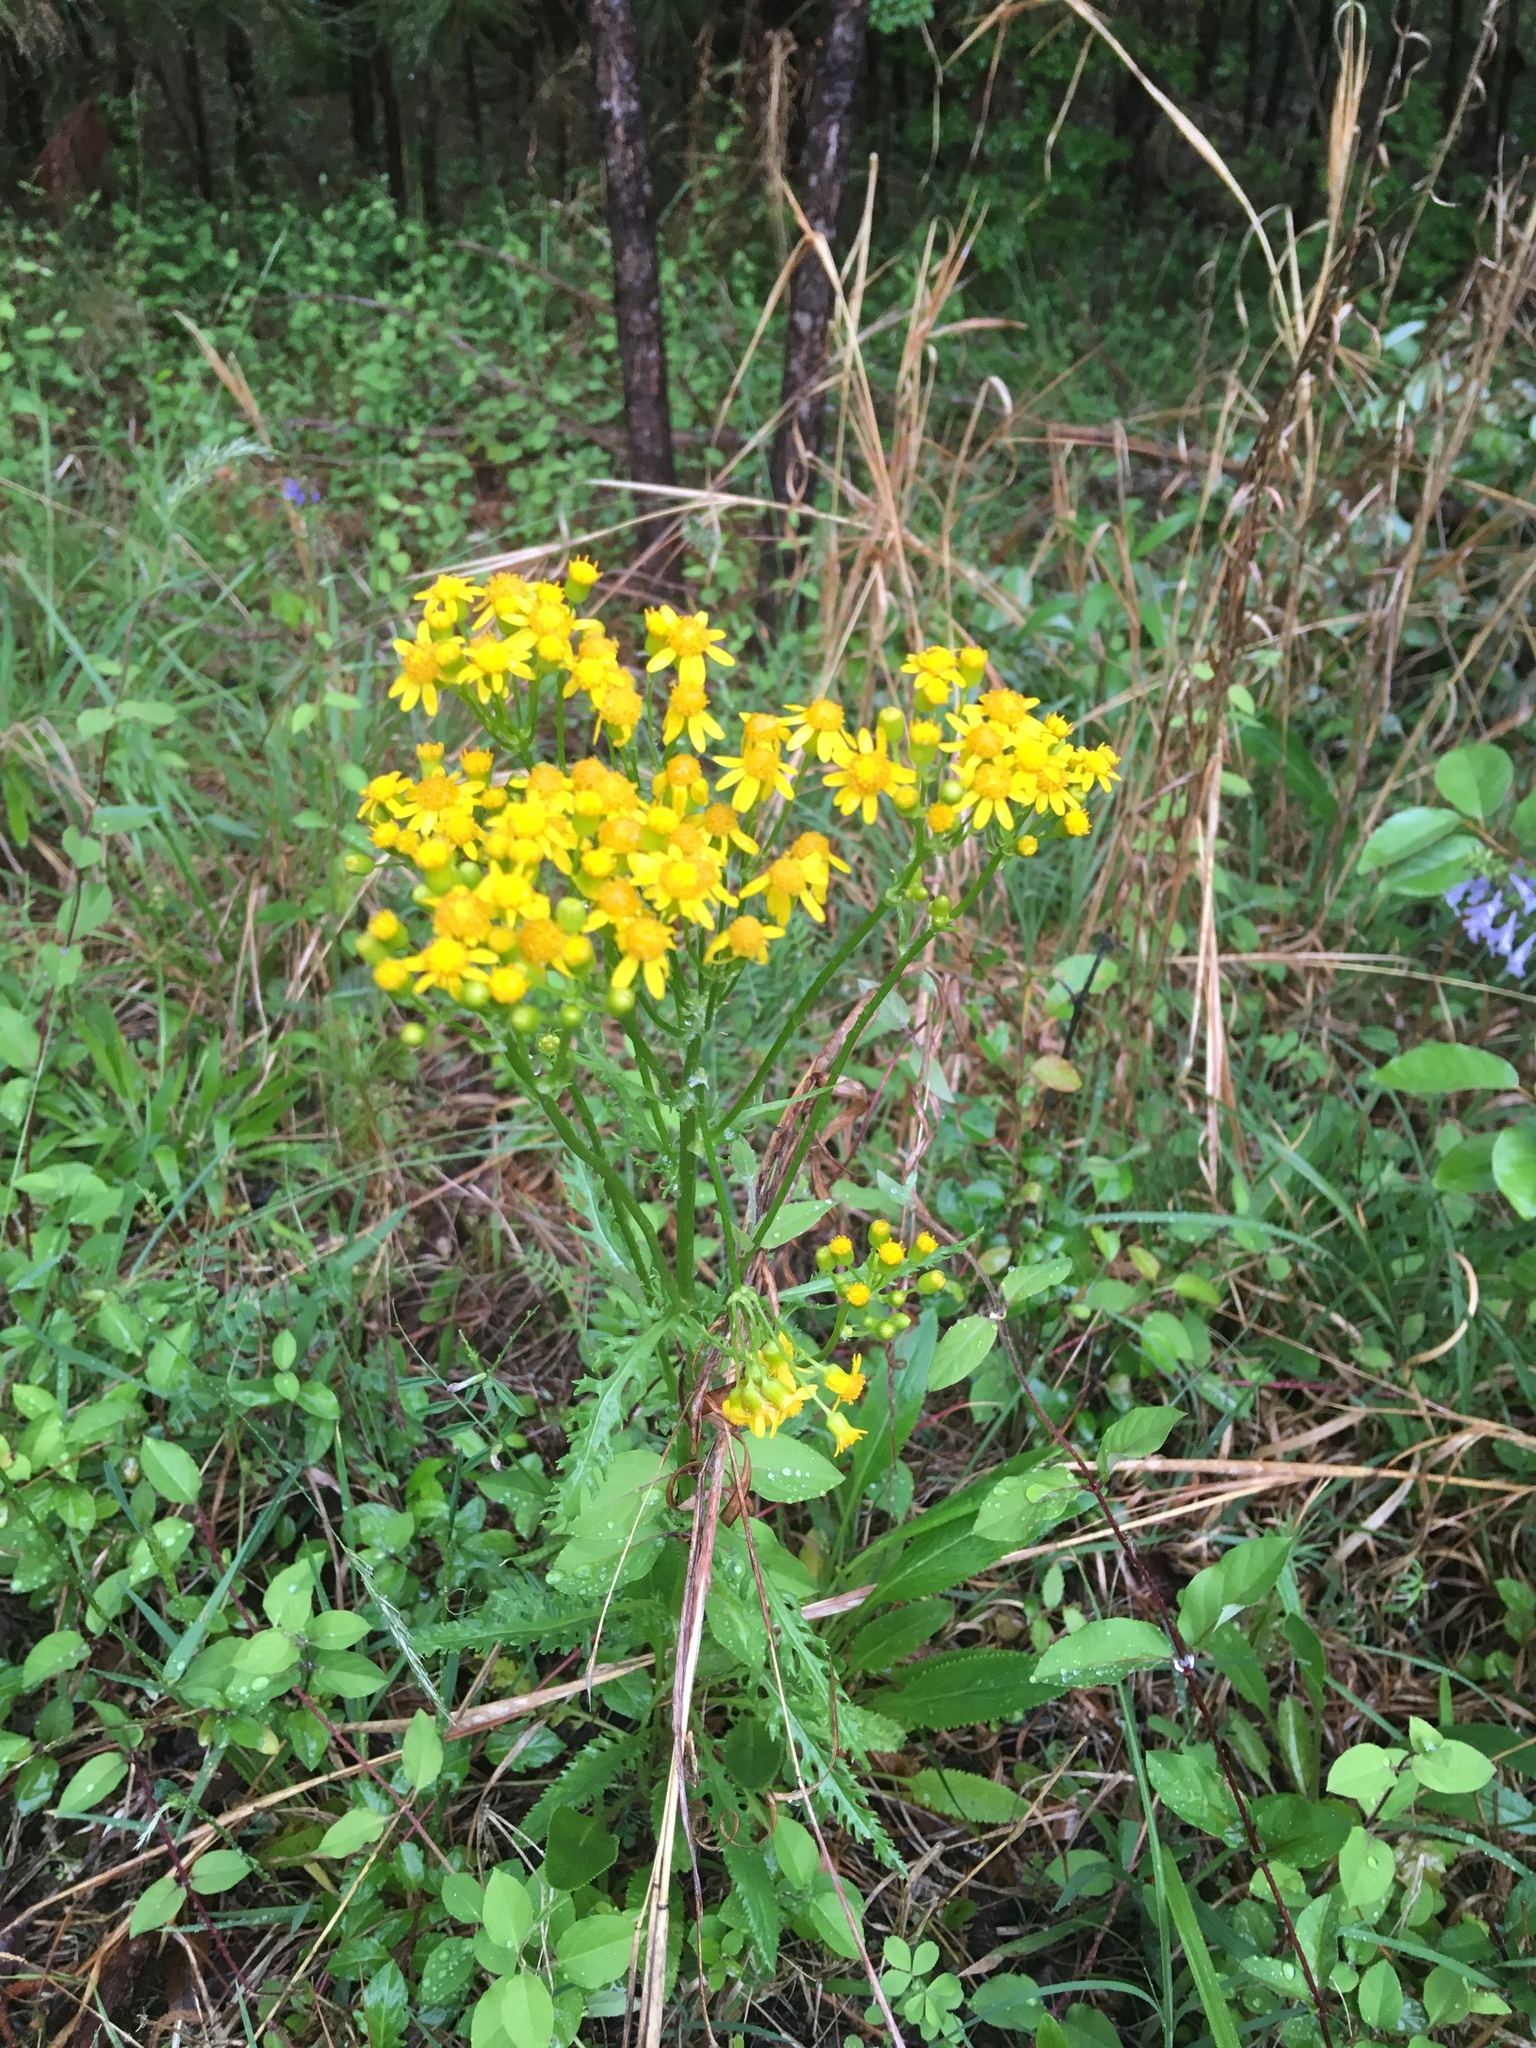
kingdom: Plantae
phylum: Tracheophyta
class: Magnoliopsida
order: Asterales
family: Asteraceae
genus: Packera
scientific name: Packera anonyma
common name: Small ragwort
